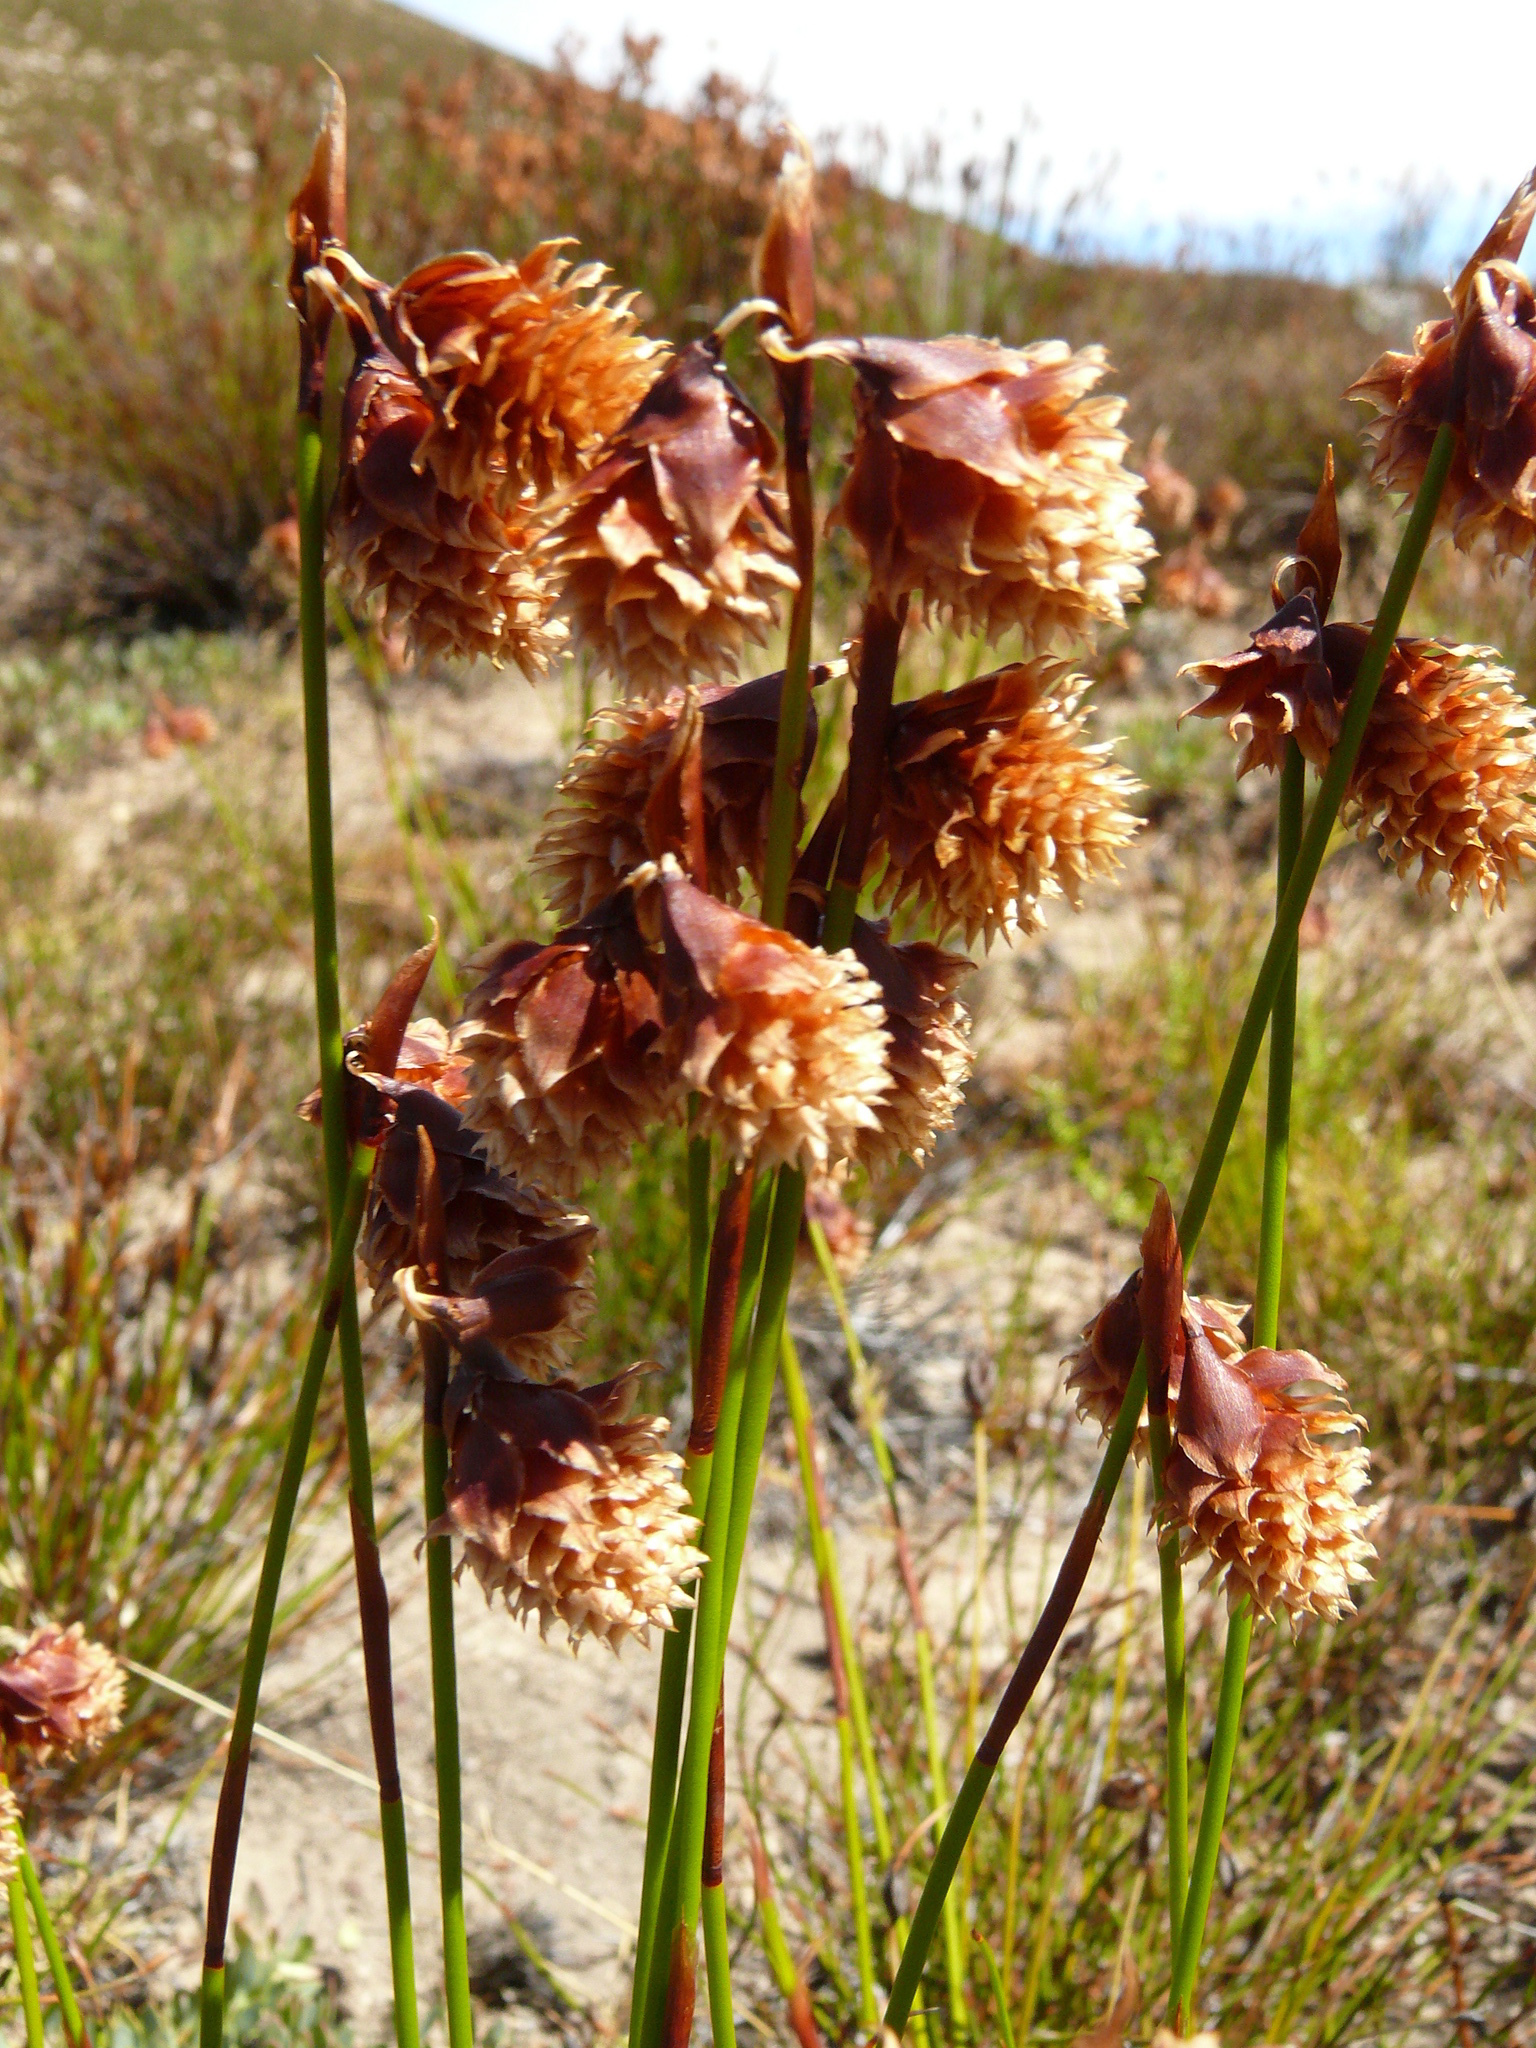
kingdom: Plantae
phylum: Tracheophyta
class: Liliopsida
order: Poales
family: Restionaceae
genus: Staberoha
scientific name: Staberoha aemula
